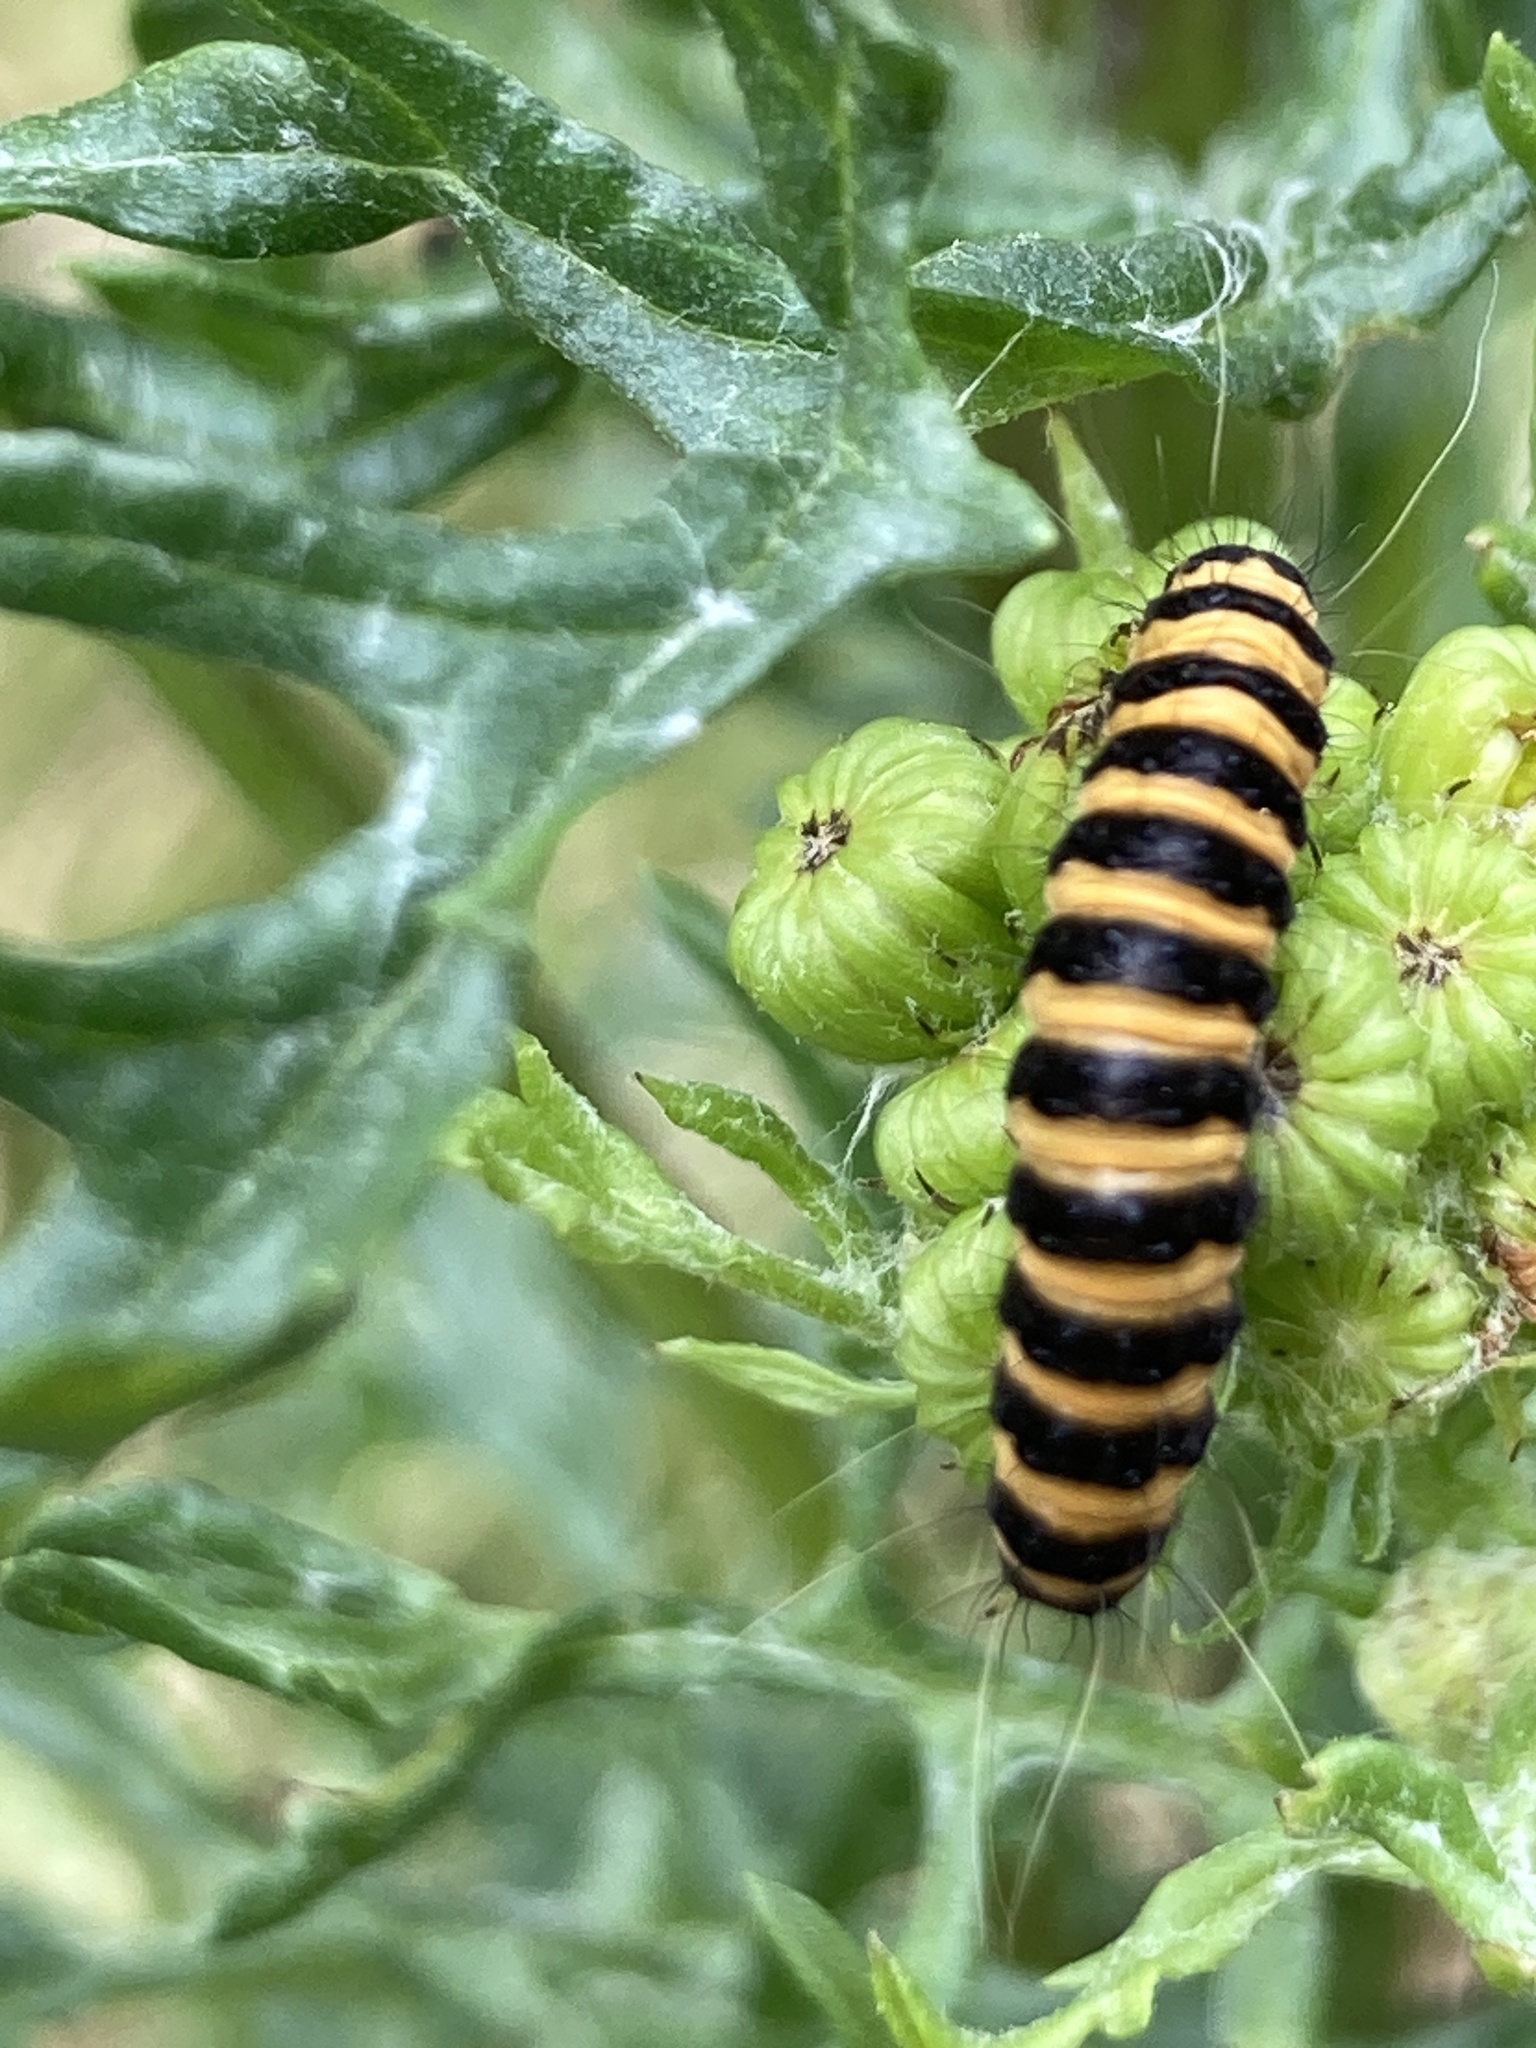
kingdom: Animalia
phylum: Arthropoda
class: Insecta
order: Lepidoptera
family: Erebidae
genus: Tyria
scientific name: Tyria jacobaeae
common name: Cinnabar
